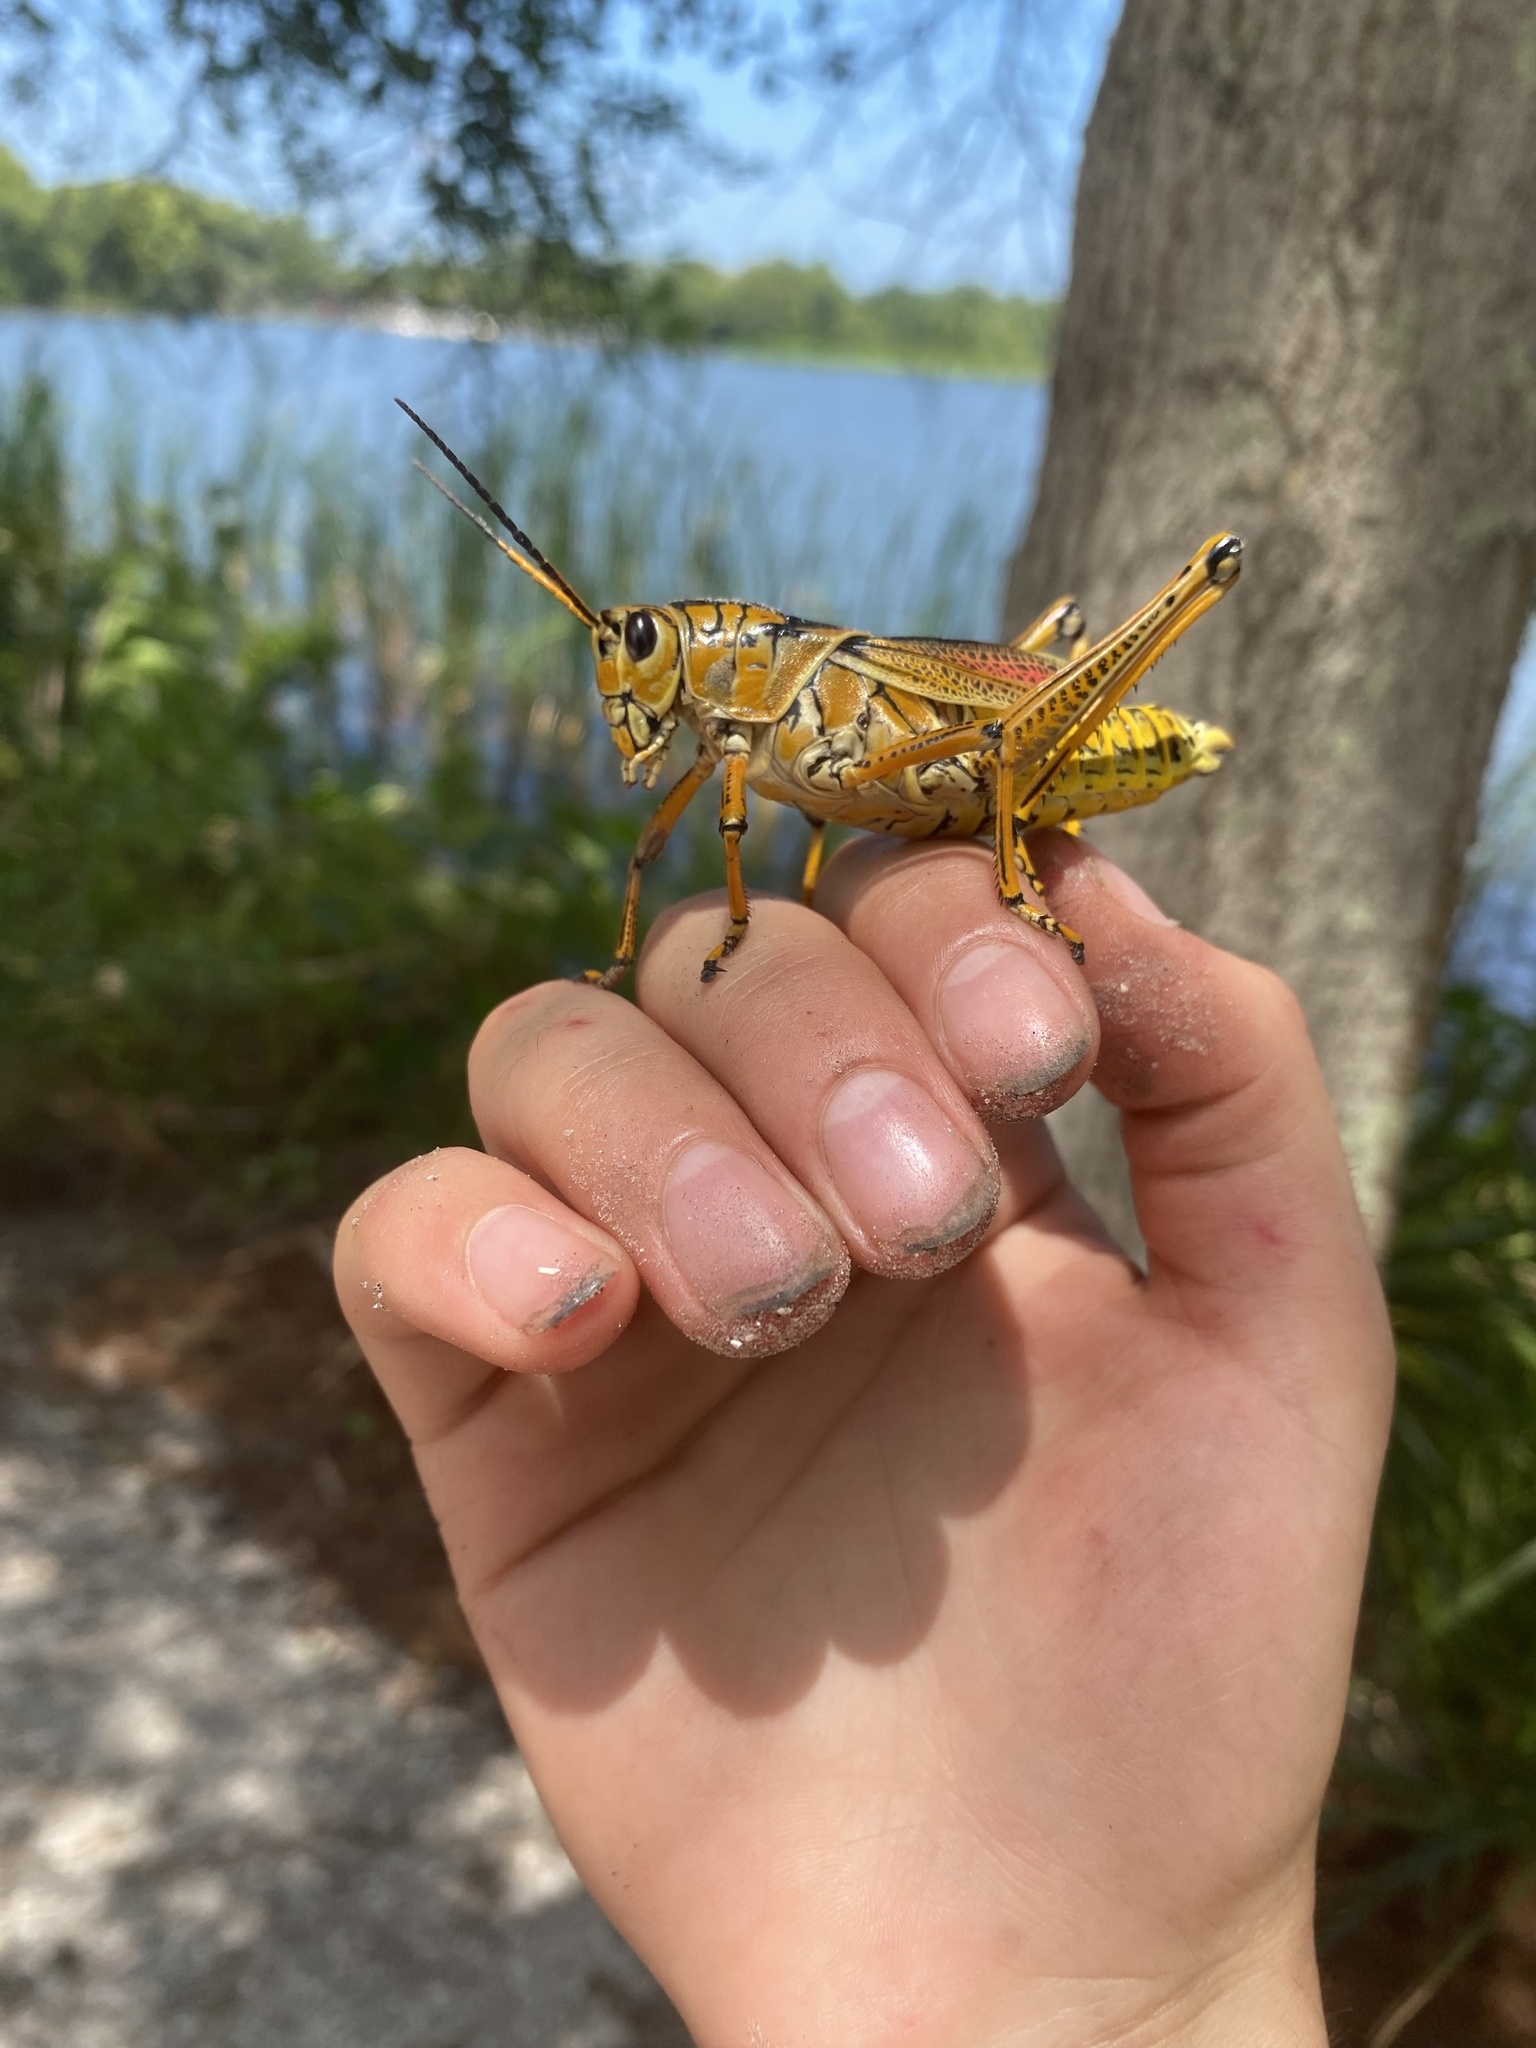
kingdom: Animalia
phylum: Arthropoda
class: Insecta
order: Orthoptera
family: Romaleidae
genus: Romalea
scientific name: Romalea microptera
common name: Eastern lubber grasshopper
